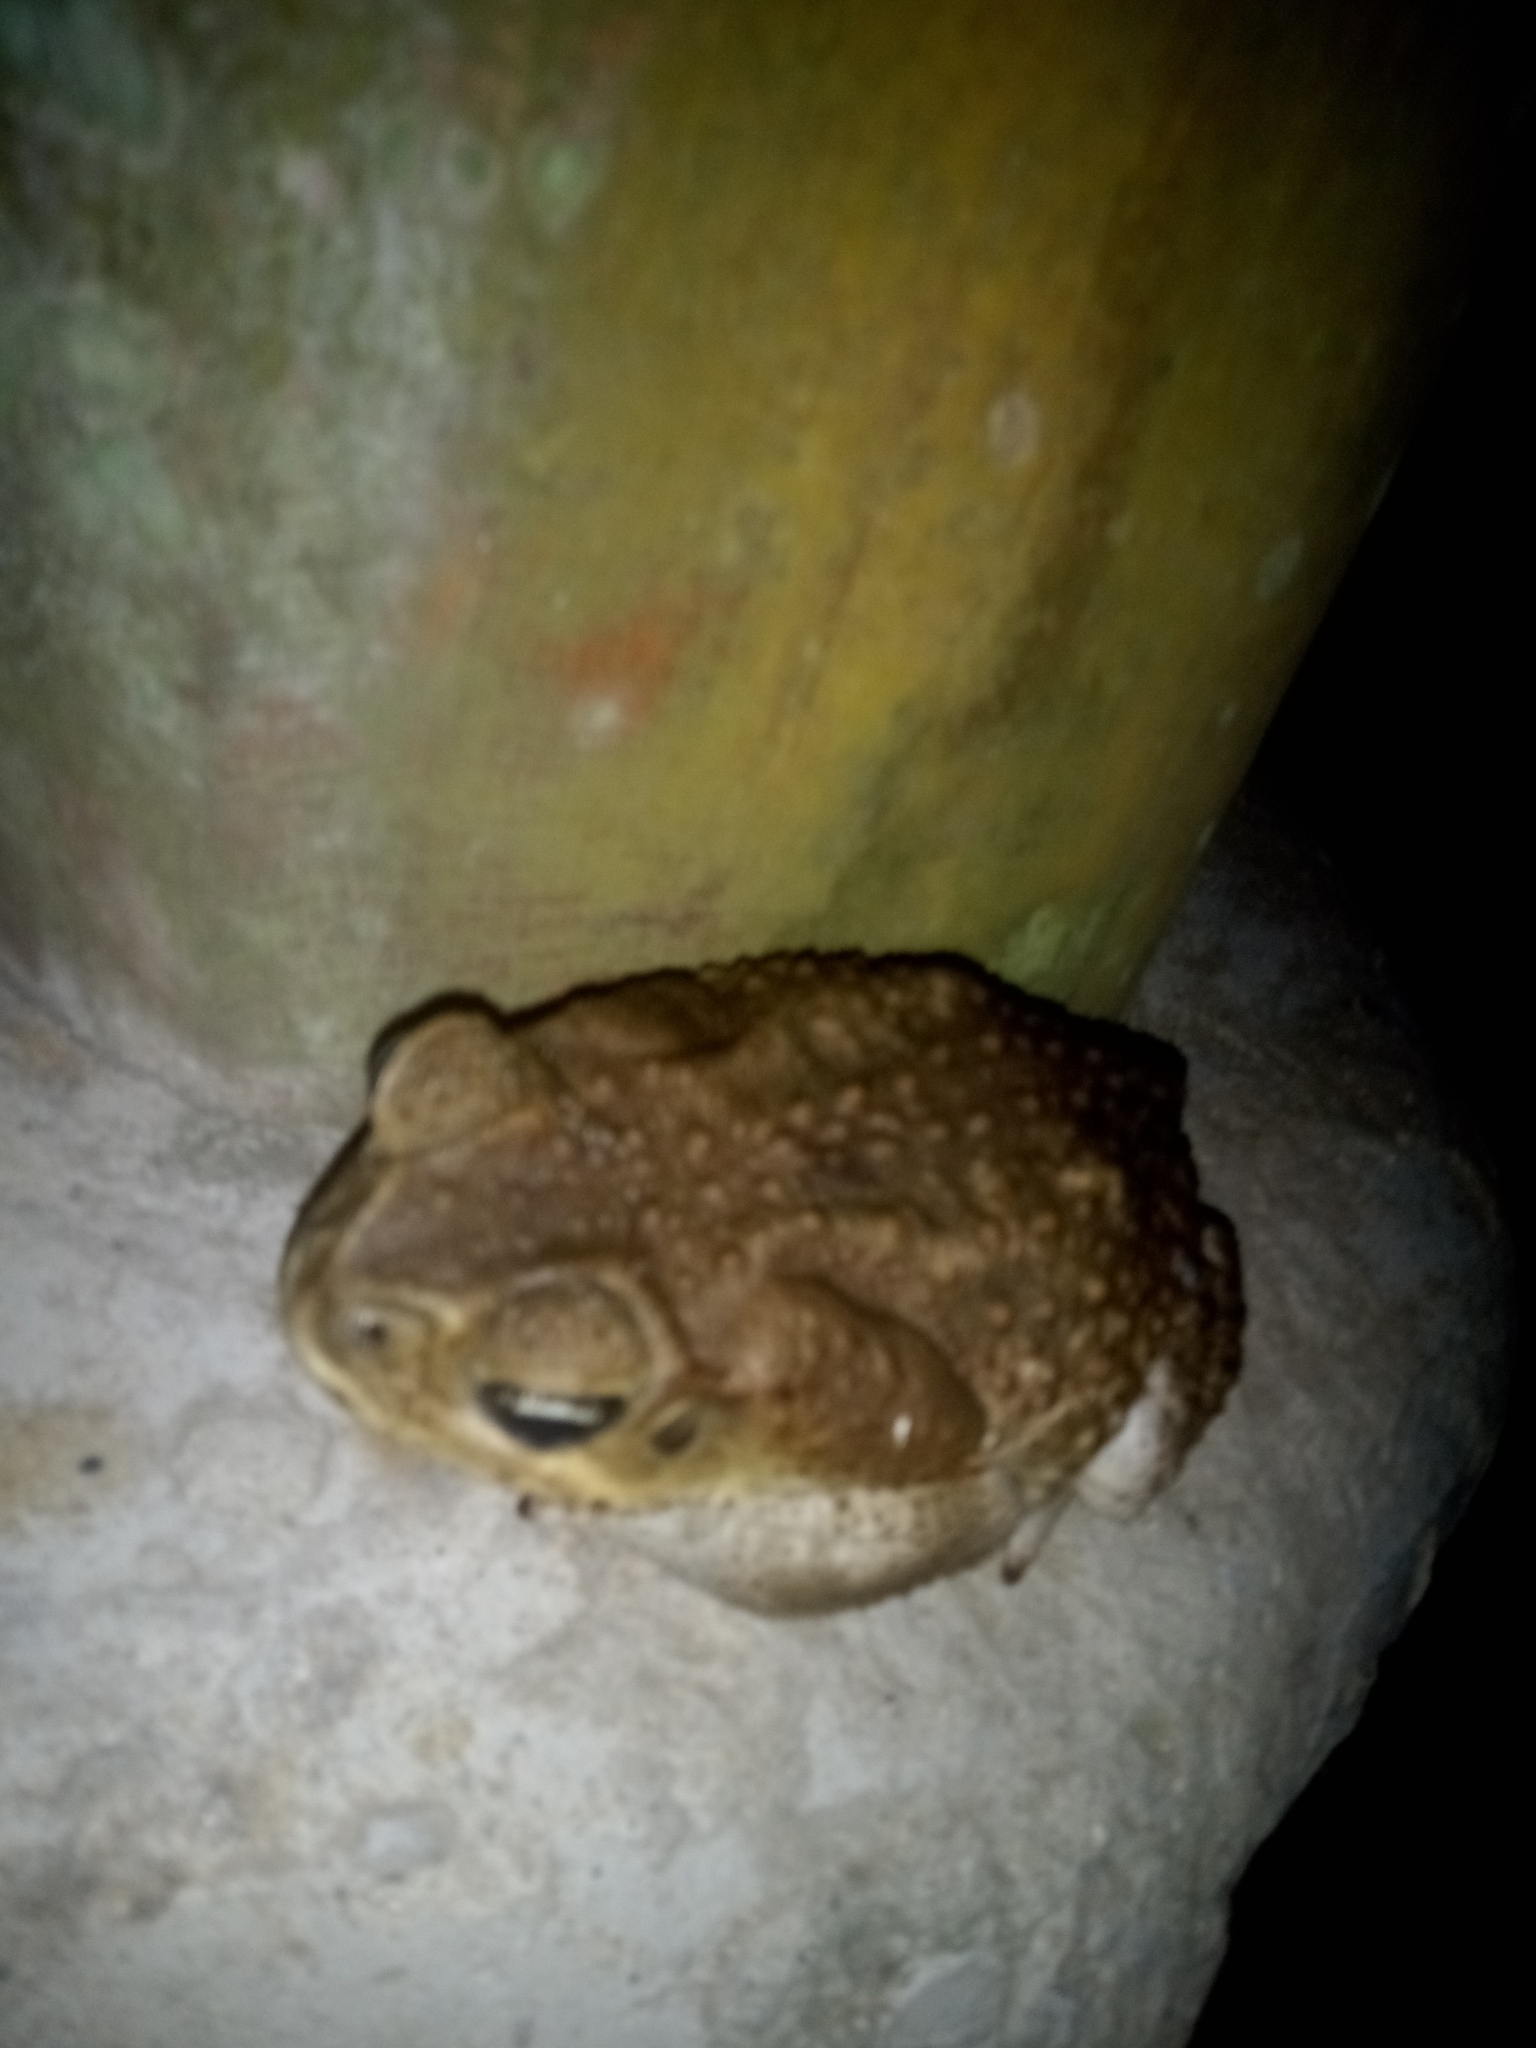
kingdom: Animalia
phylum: Chordata
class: Amphibia
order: Anura
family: Bufonidae
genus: Rhinella
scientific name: Rhinella horribilis
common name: Mesoamerican cane toad
